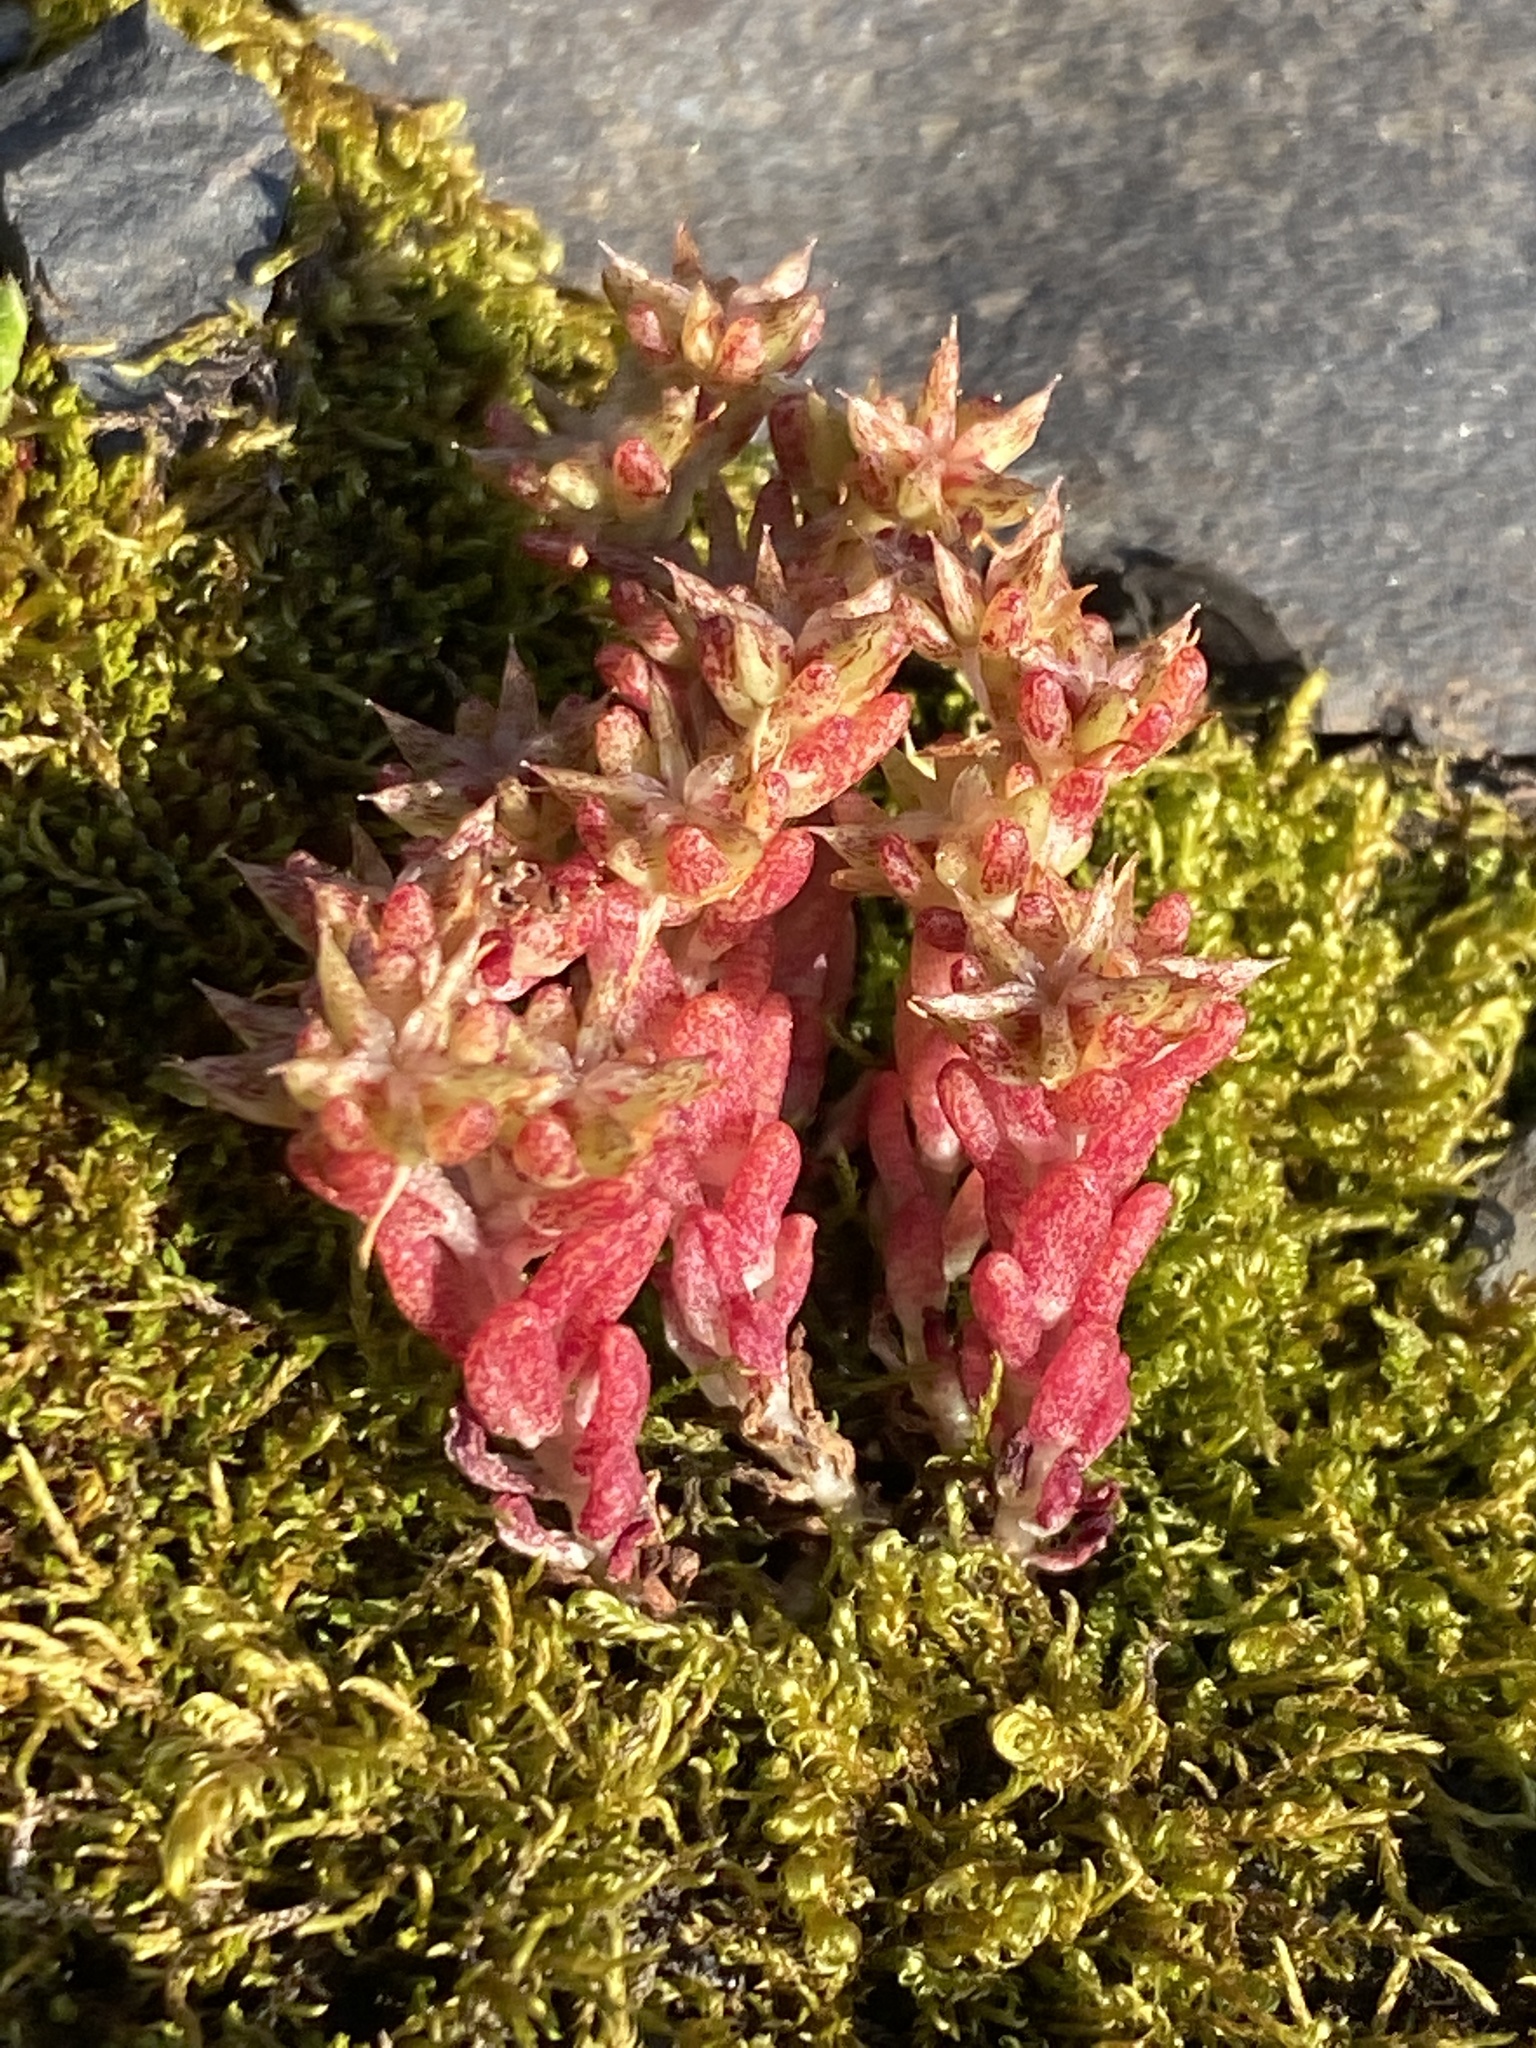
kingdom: Plantae
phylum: Tracheophyta
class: Magnoliopsida
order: Saxifragales
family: Crassulaceae
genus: Sedum
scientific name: Sedum annuum
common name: Annual stonecrop
